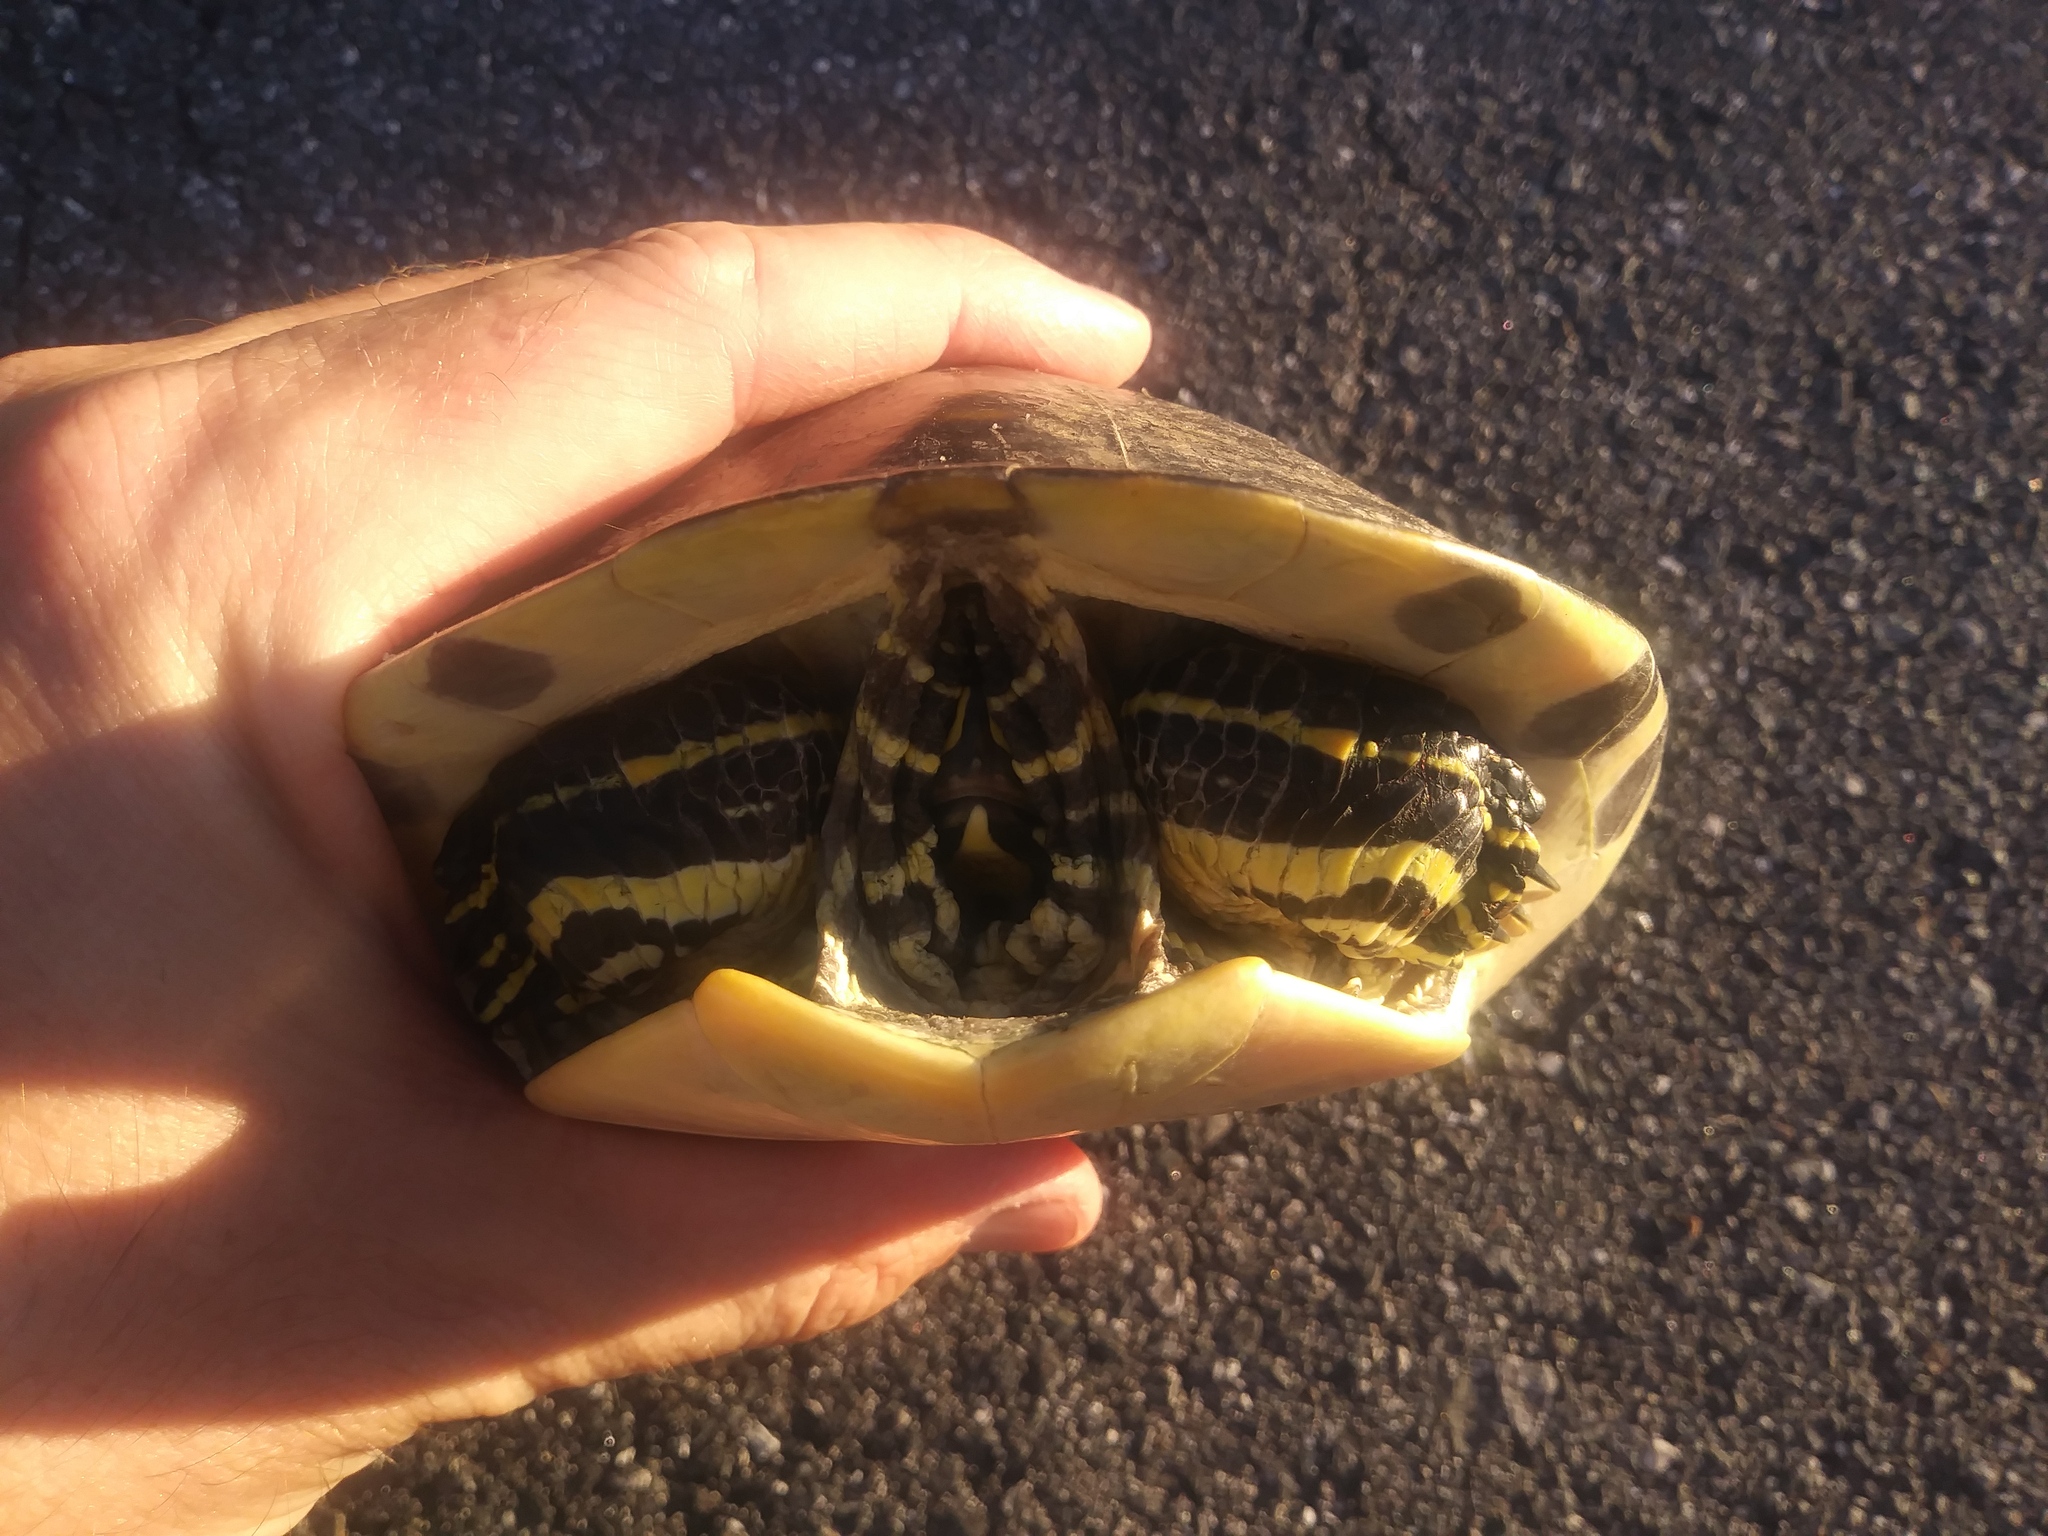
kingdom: Animalia
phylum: Chordata
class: Testudines
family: Emydidae
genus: Pseudemys
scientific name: Pseudemys peninsularis
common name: Peninsula cooter
